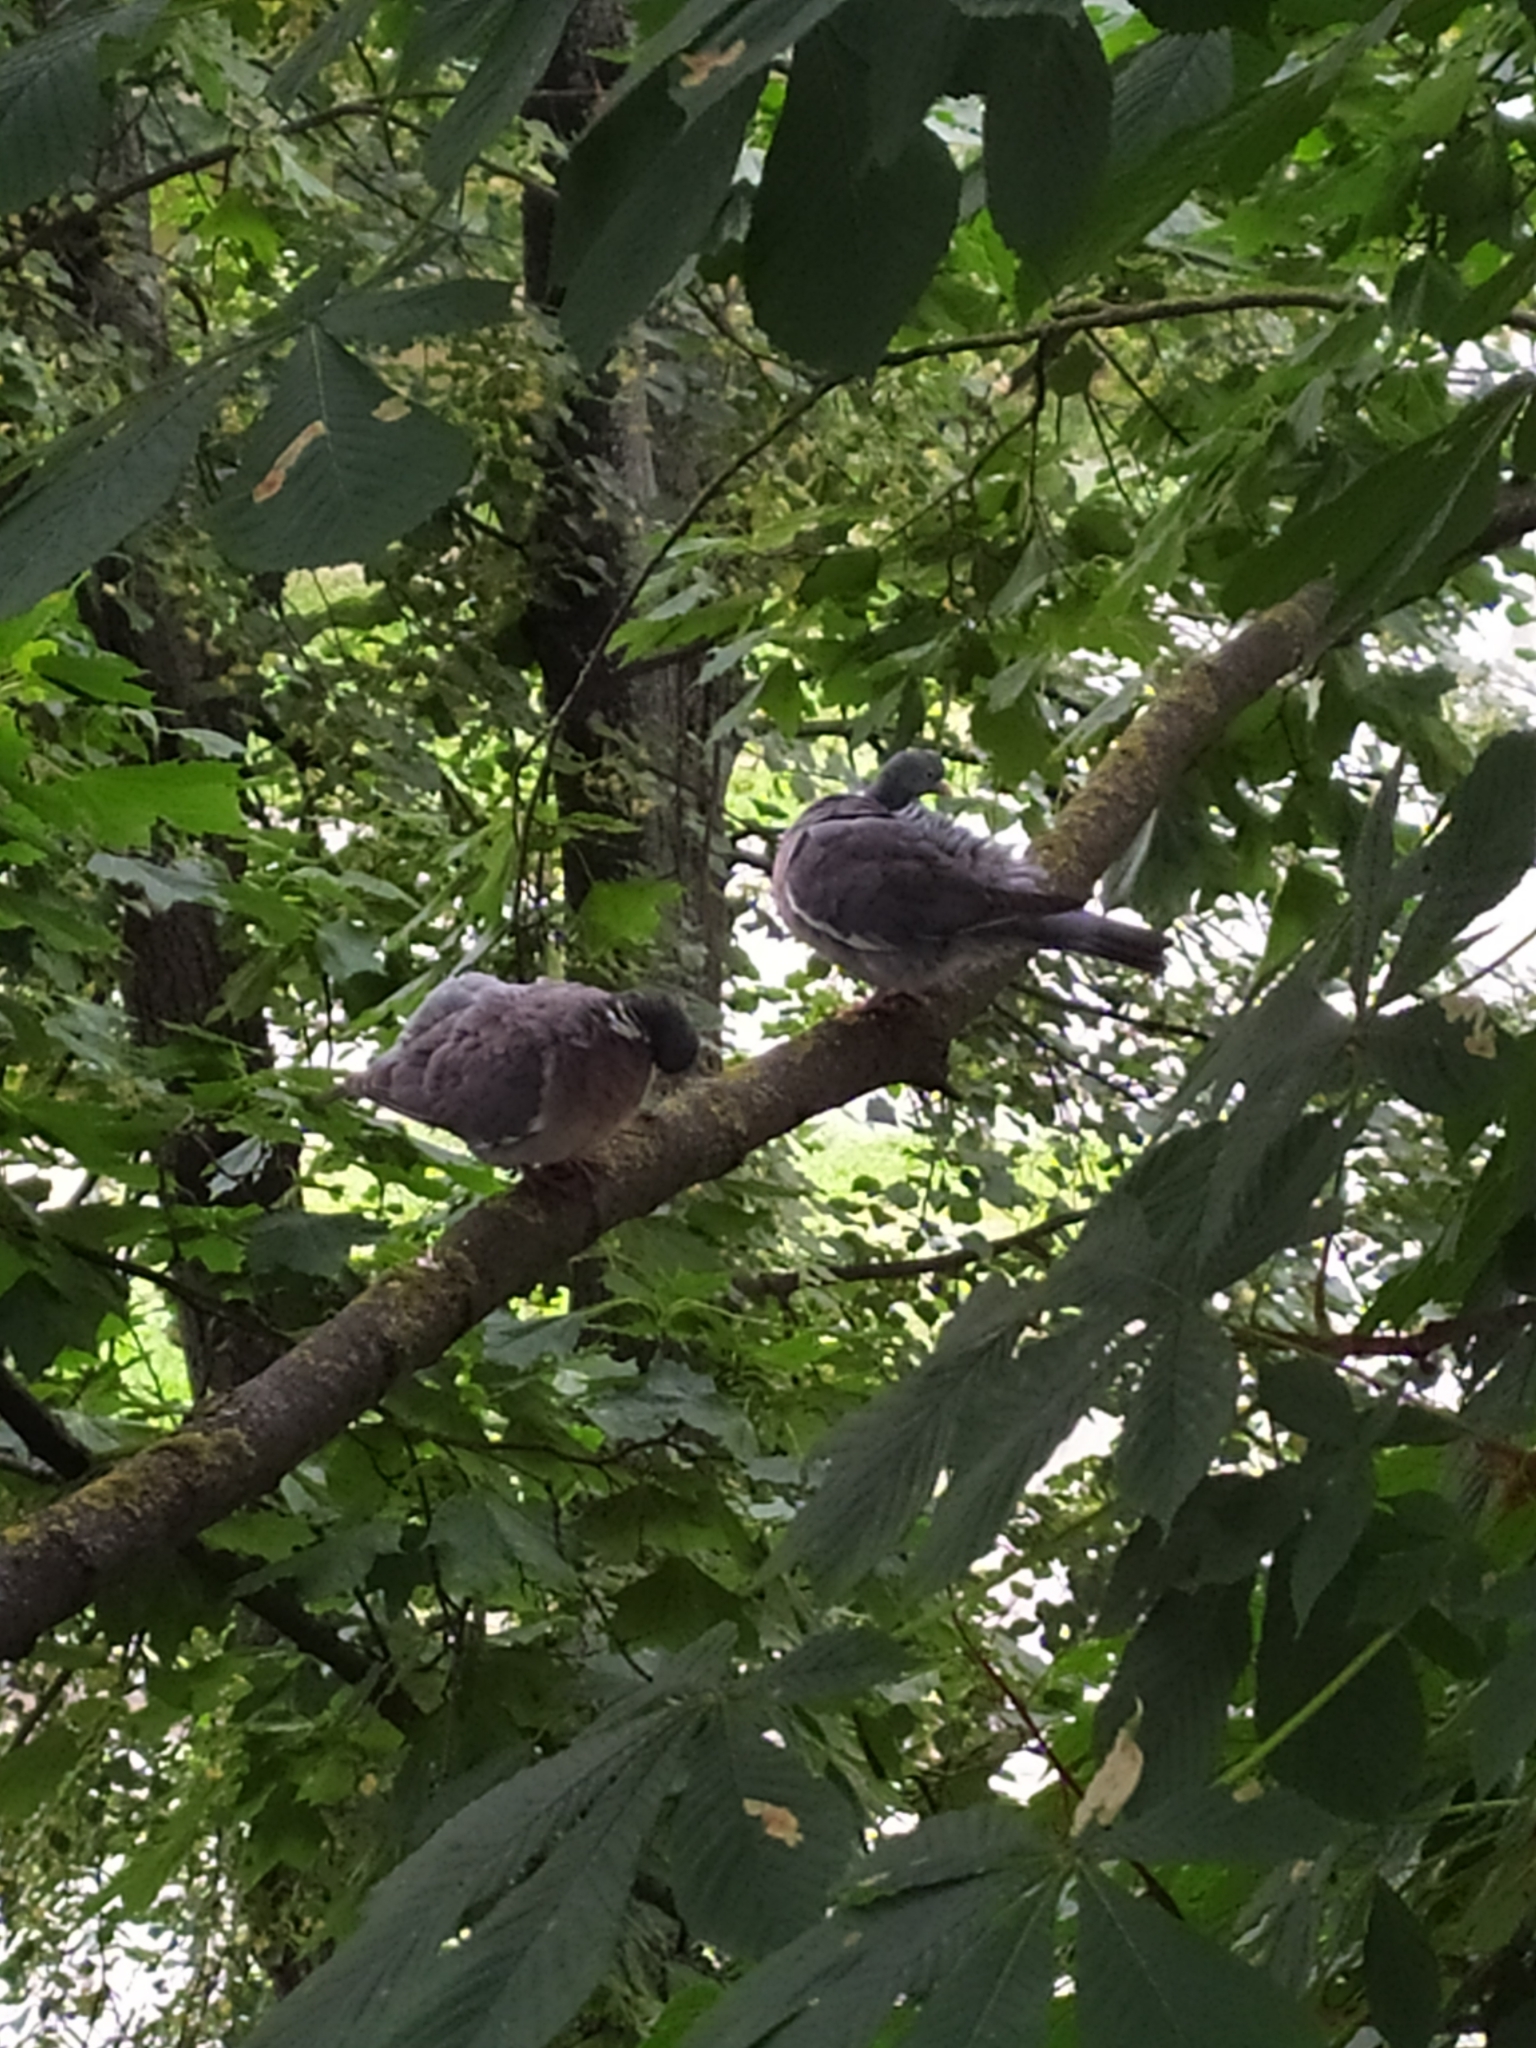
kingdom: Animalia
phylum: Chordata
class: Aves
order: Columbiformes
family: Columbidae
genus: Columba
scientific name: Columba palumbus
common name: Common wood pigeon
